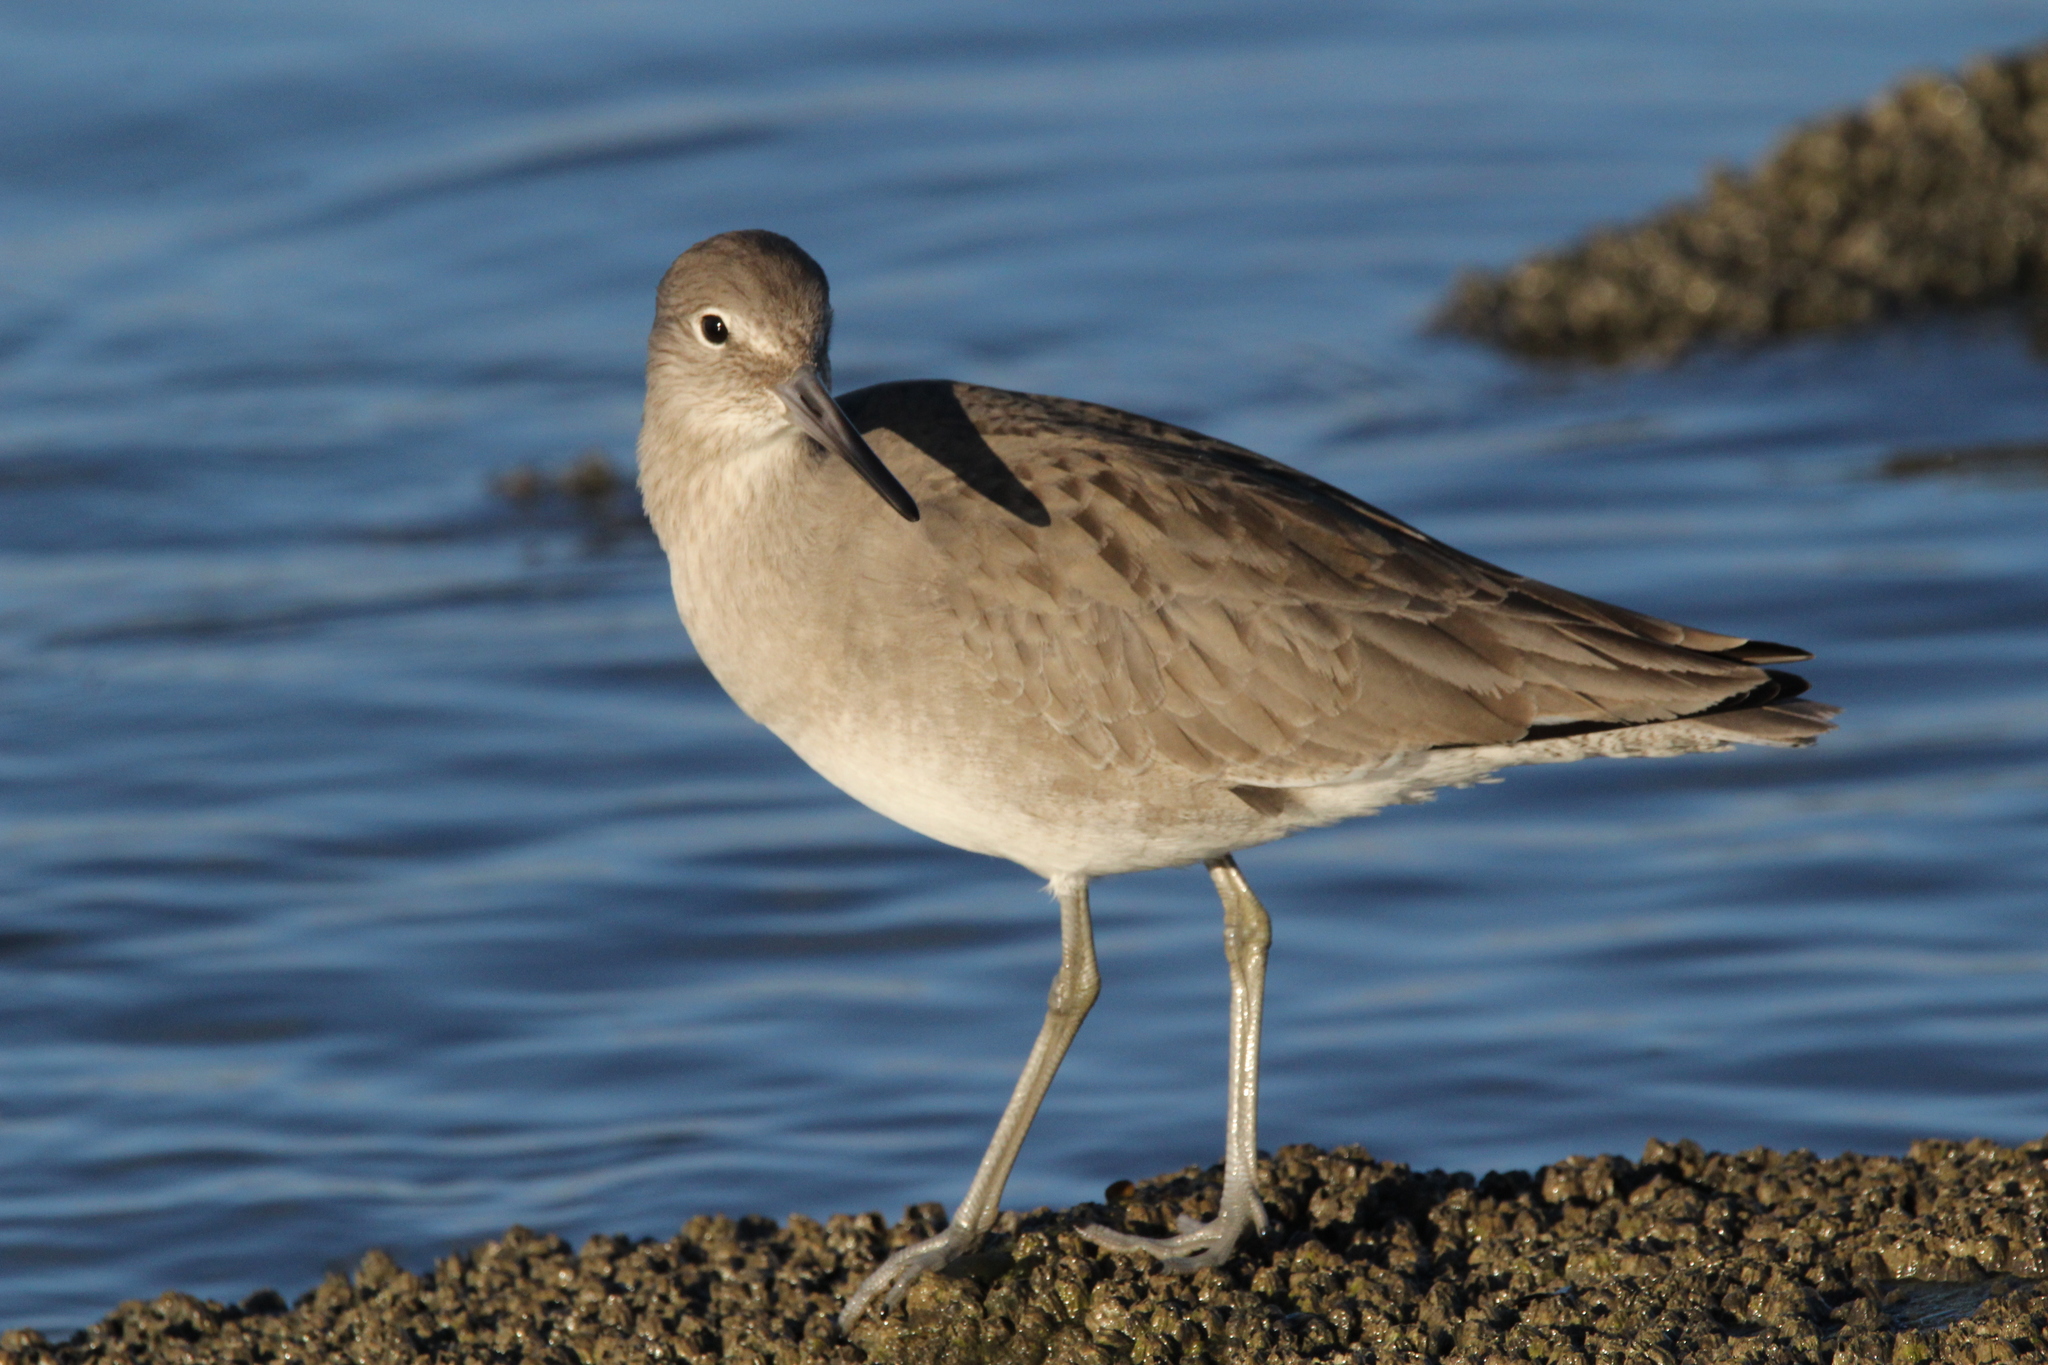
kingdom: Animalia
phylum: Chordata
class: Aves
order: Charadriiformes
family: Scolopacidae
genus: Tringa
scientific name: Tringa semipalmata
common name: Willet
